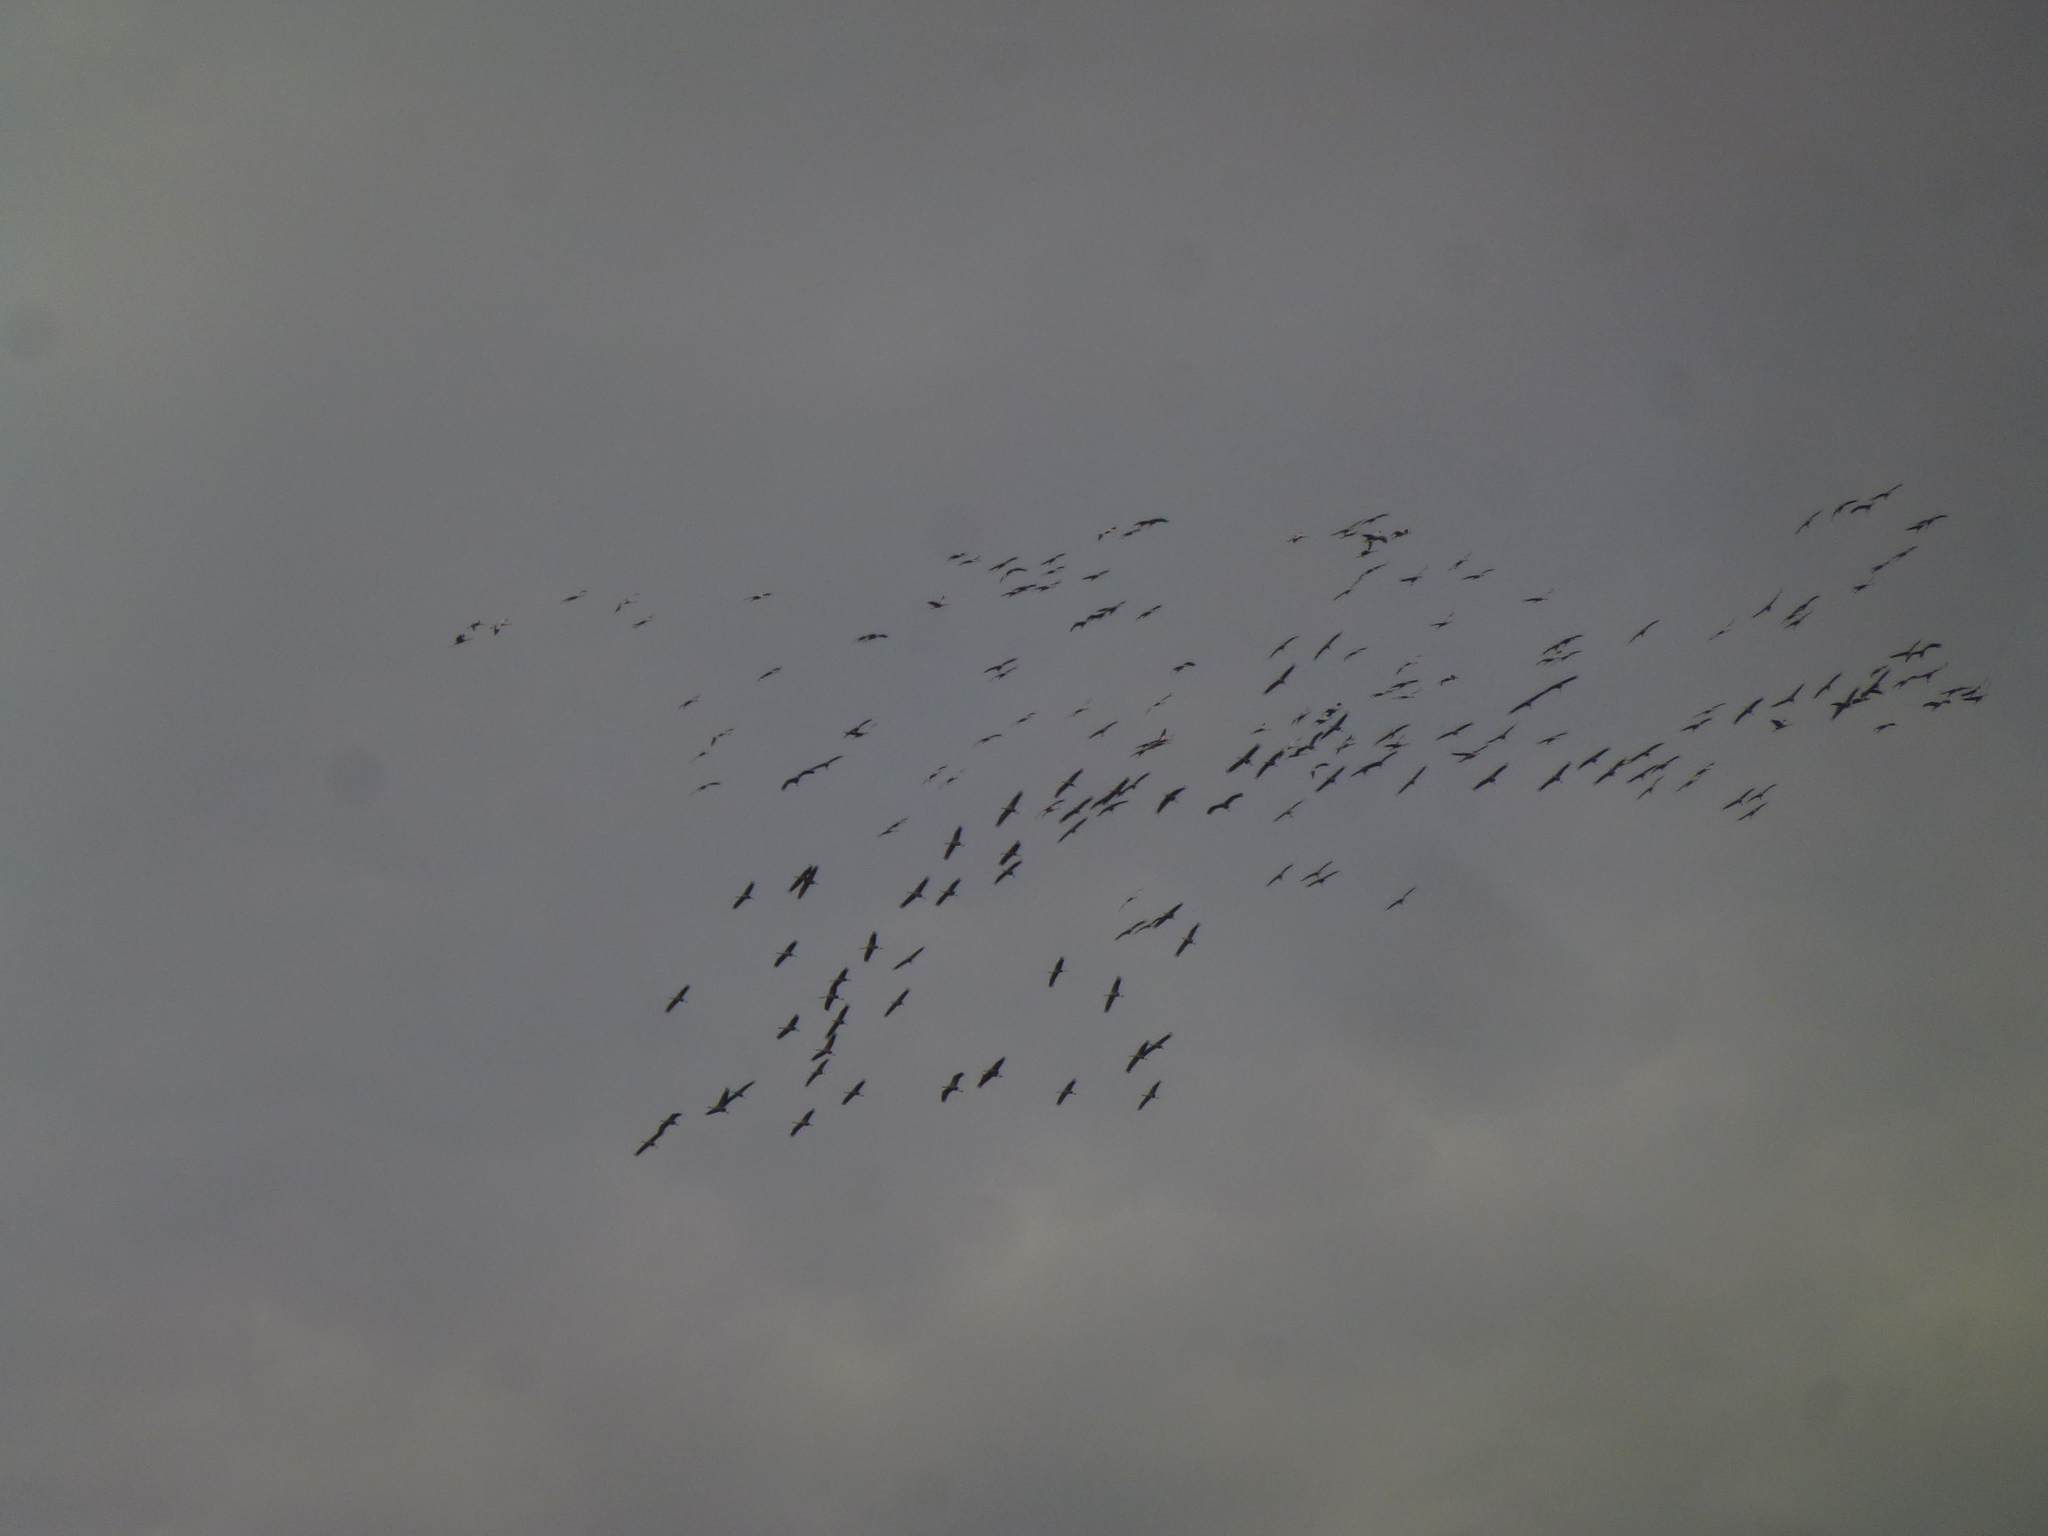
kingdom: Animalia
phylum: Chordata
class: Aves
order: Gruiformes
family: Gruidae
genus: Grus
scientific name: Grus grus
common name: Common crane
